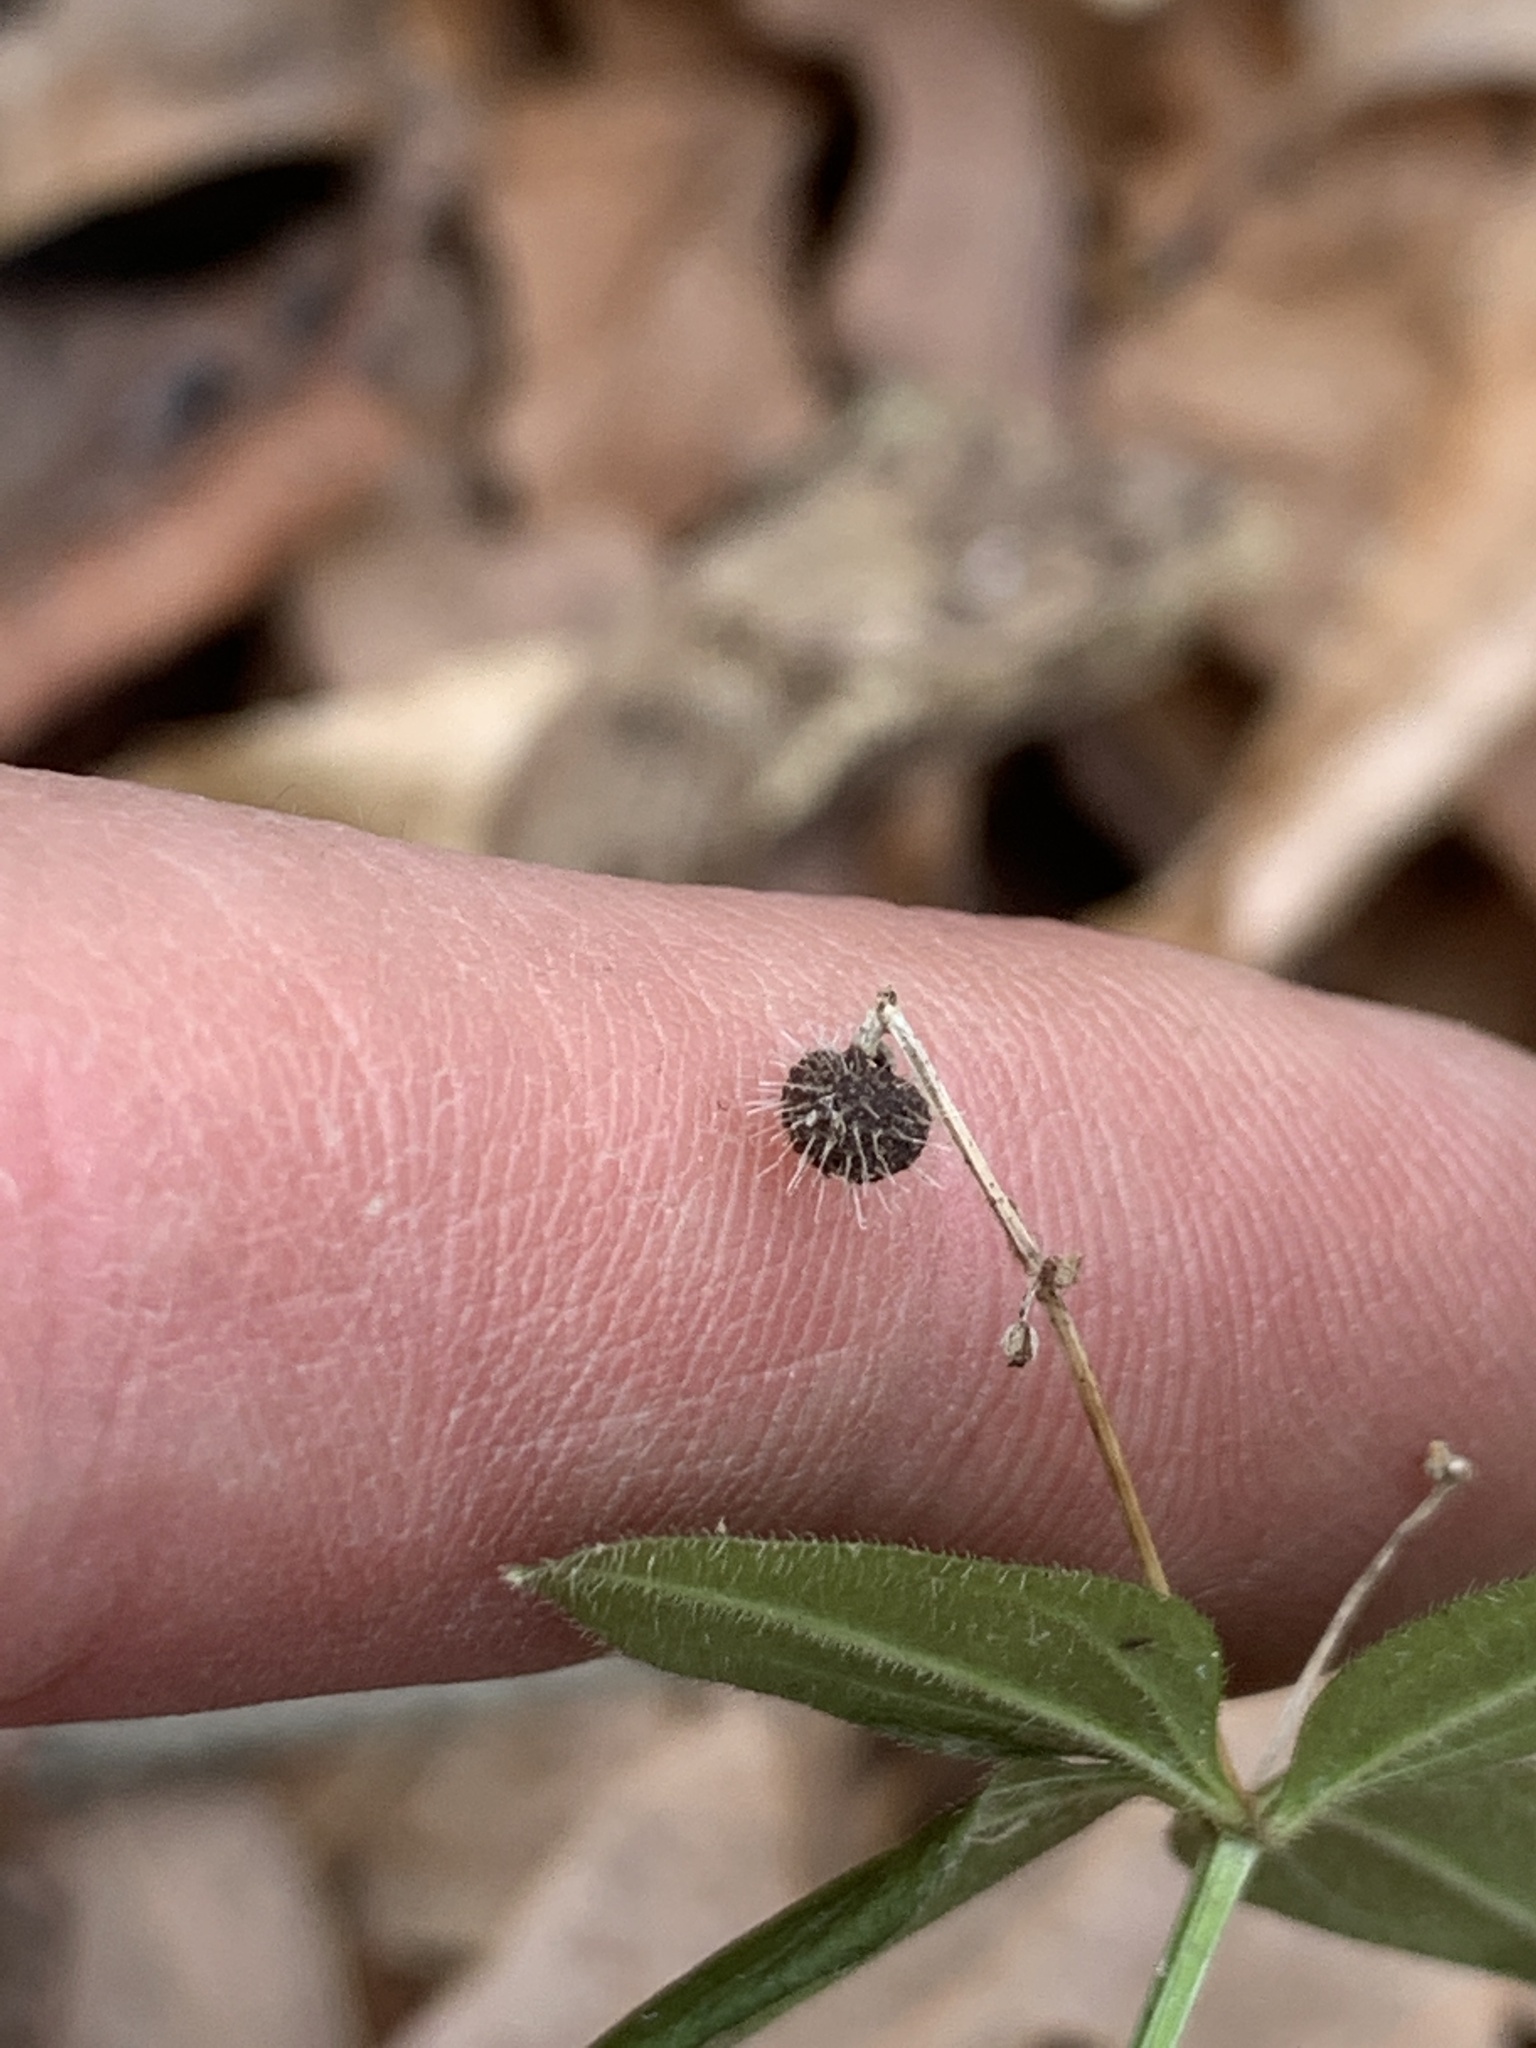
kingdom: Plantae
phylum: Tracheophyta
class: Magnoliopsida
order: Gentianales
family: Rubiaceae
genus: Galium
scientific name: Galium circaezans
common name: Forest bedstraw
